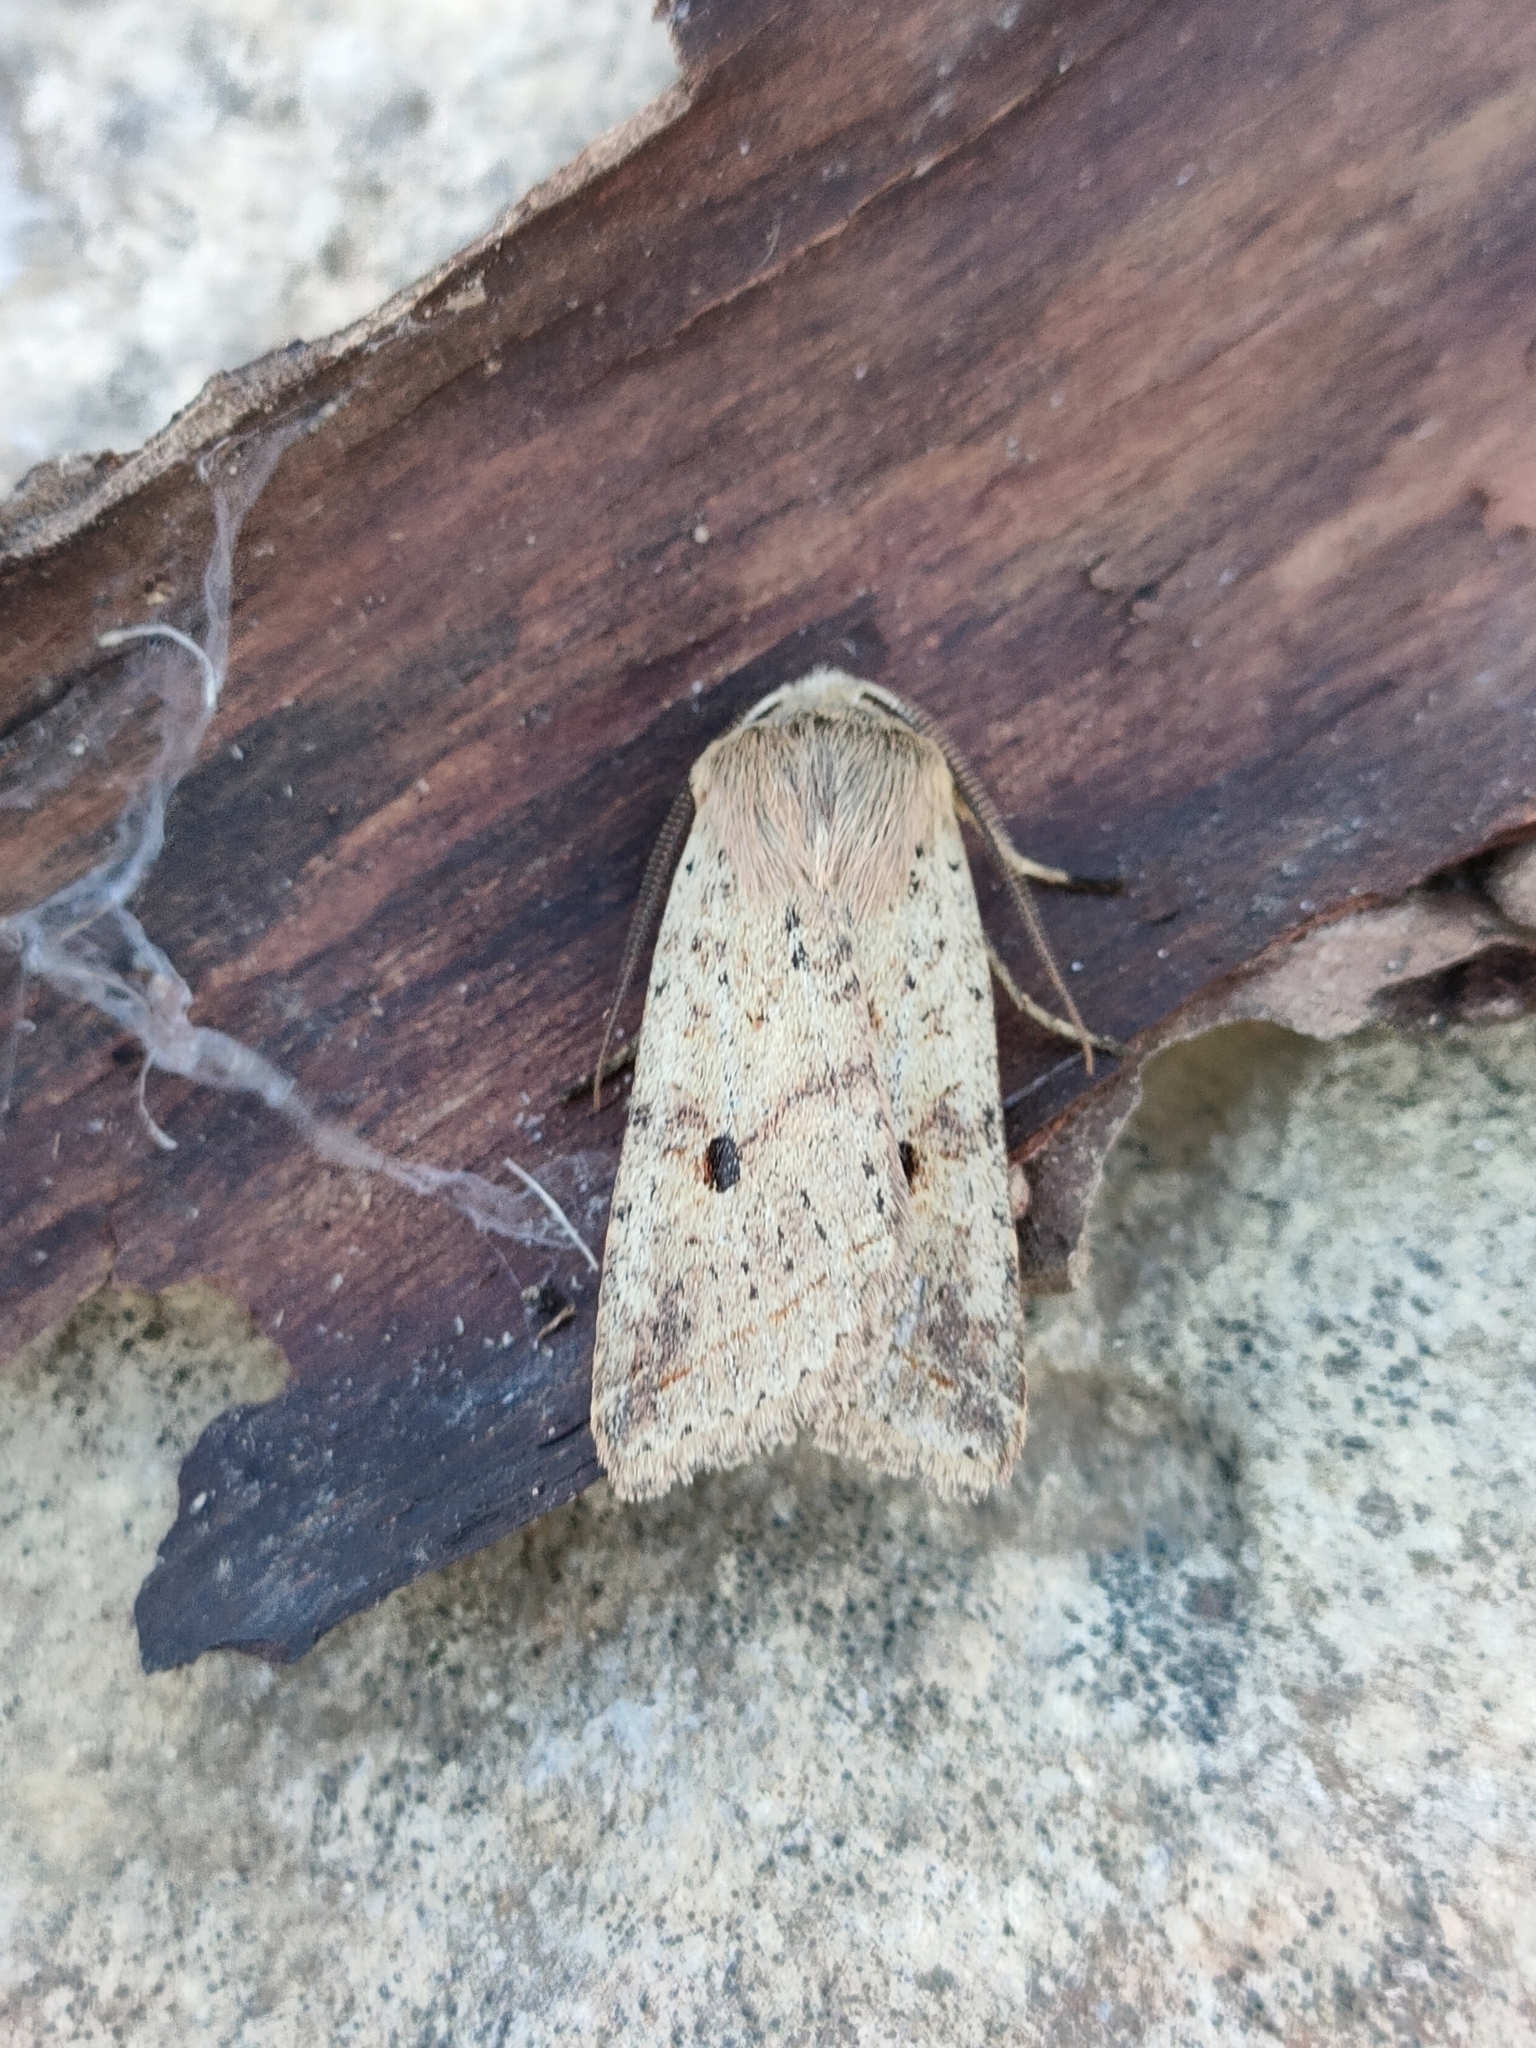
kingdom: Animalia
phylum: Arthropoda
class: Insecta
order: Lepidoptera
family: Noctuidae
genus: Agrochola
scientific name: Agrochola blidaensis
